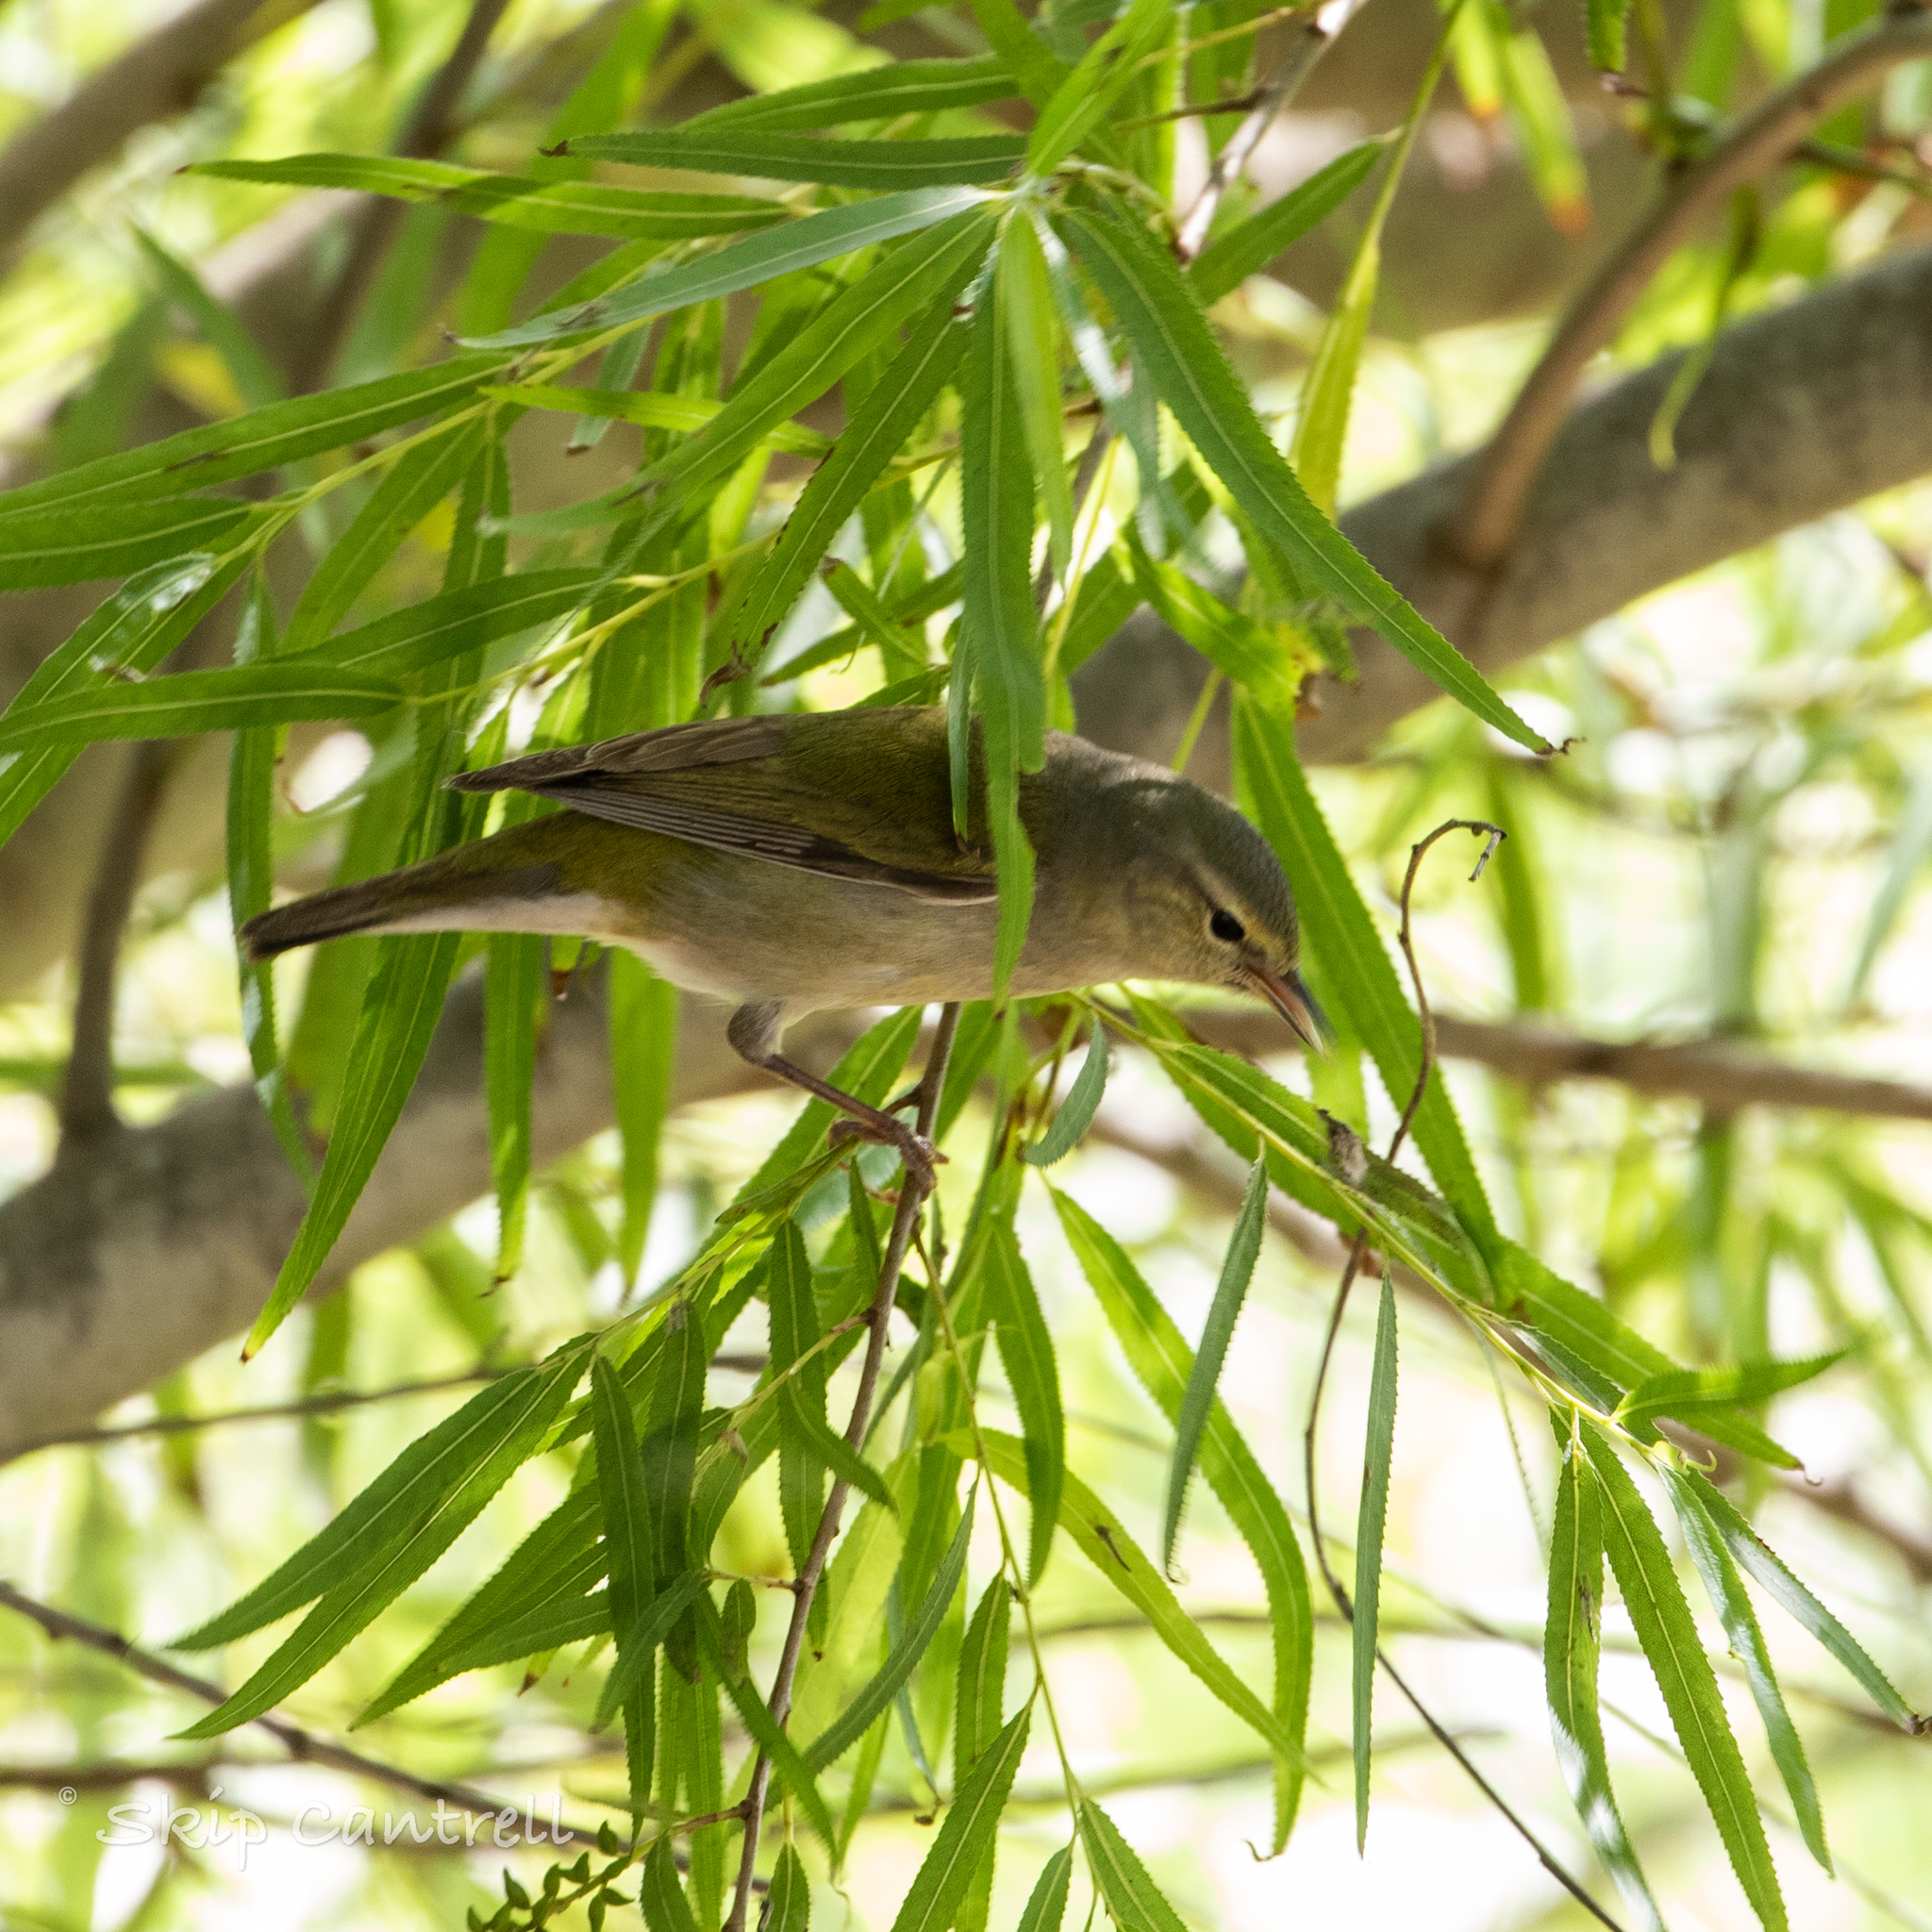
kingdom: Animalia
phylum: Chordata
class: Aves
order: Passeriformes
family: Parulidae
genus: Leiothlypis
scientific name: Leiothlypis peregrina
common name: Tennessee warbler
